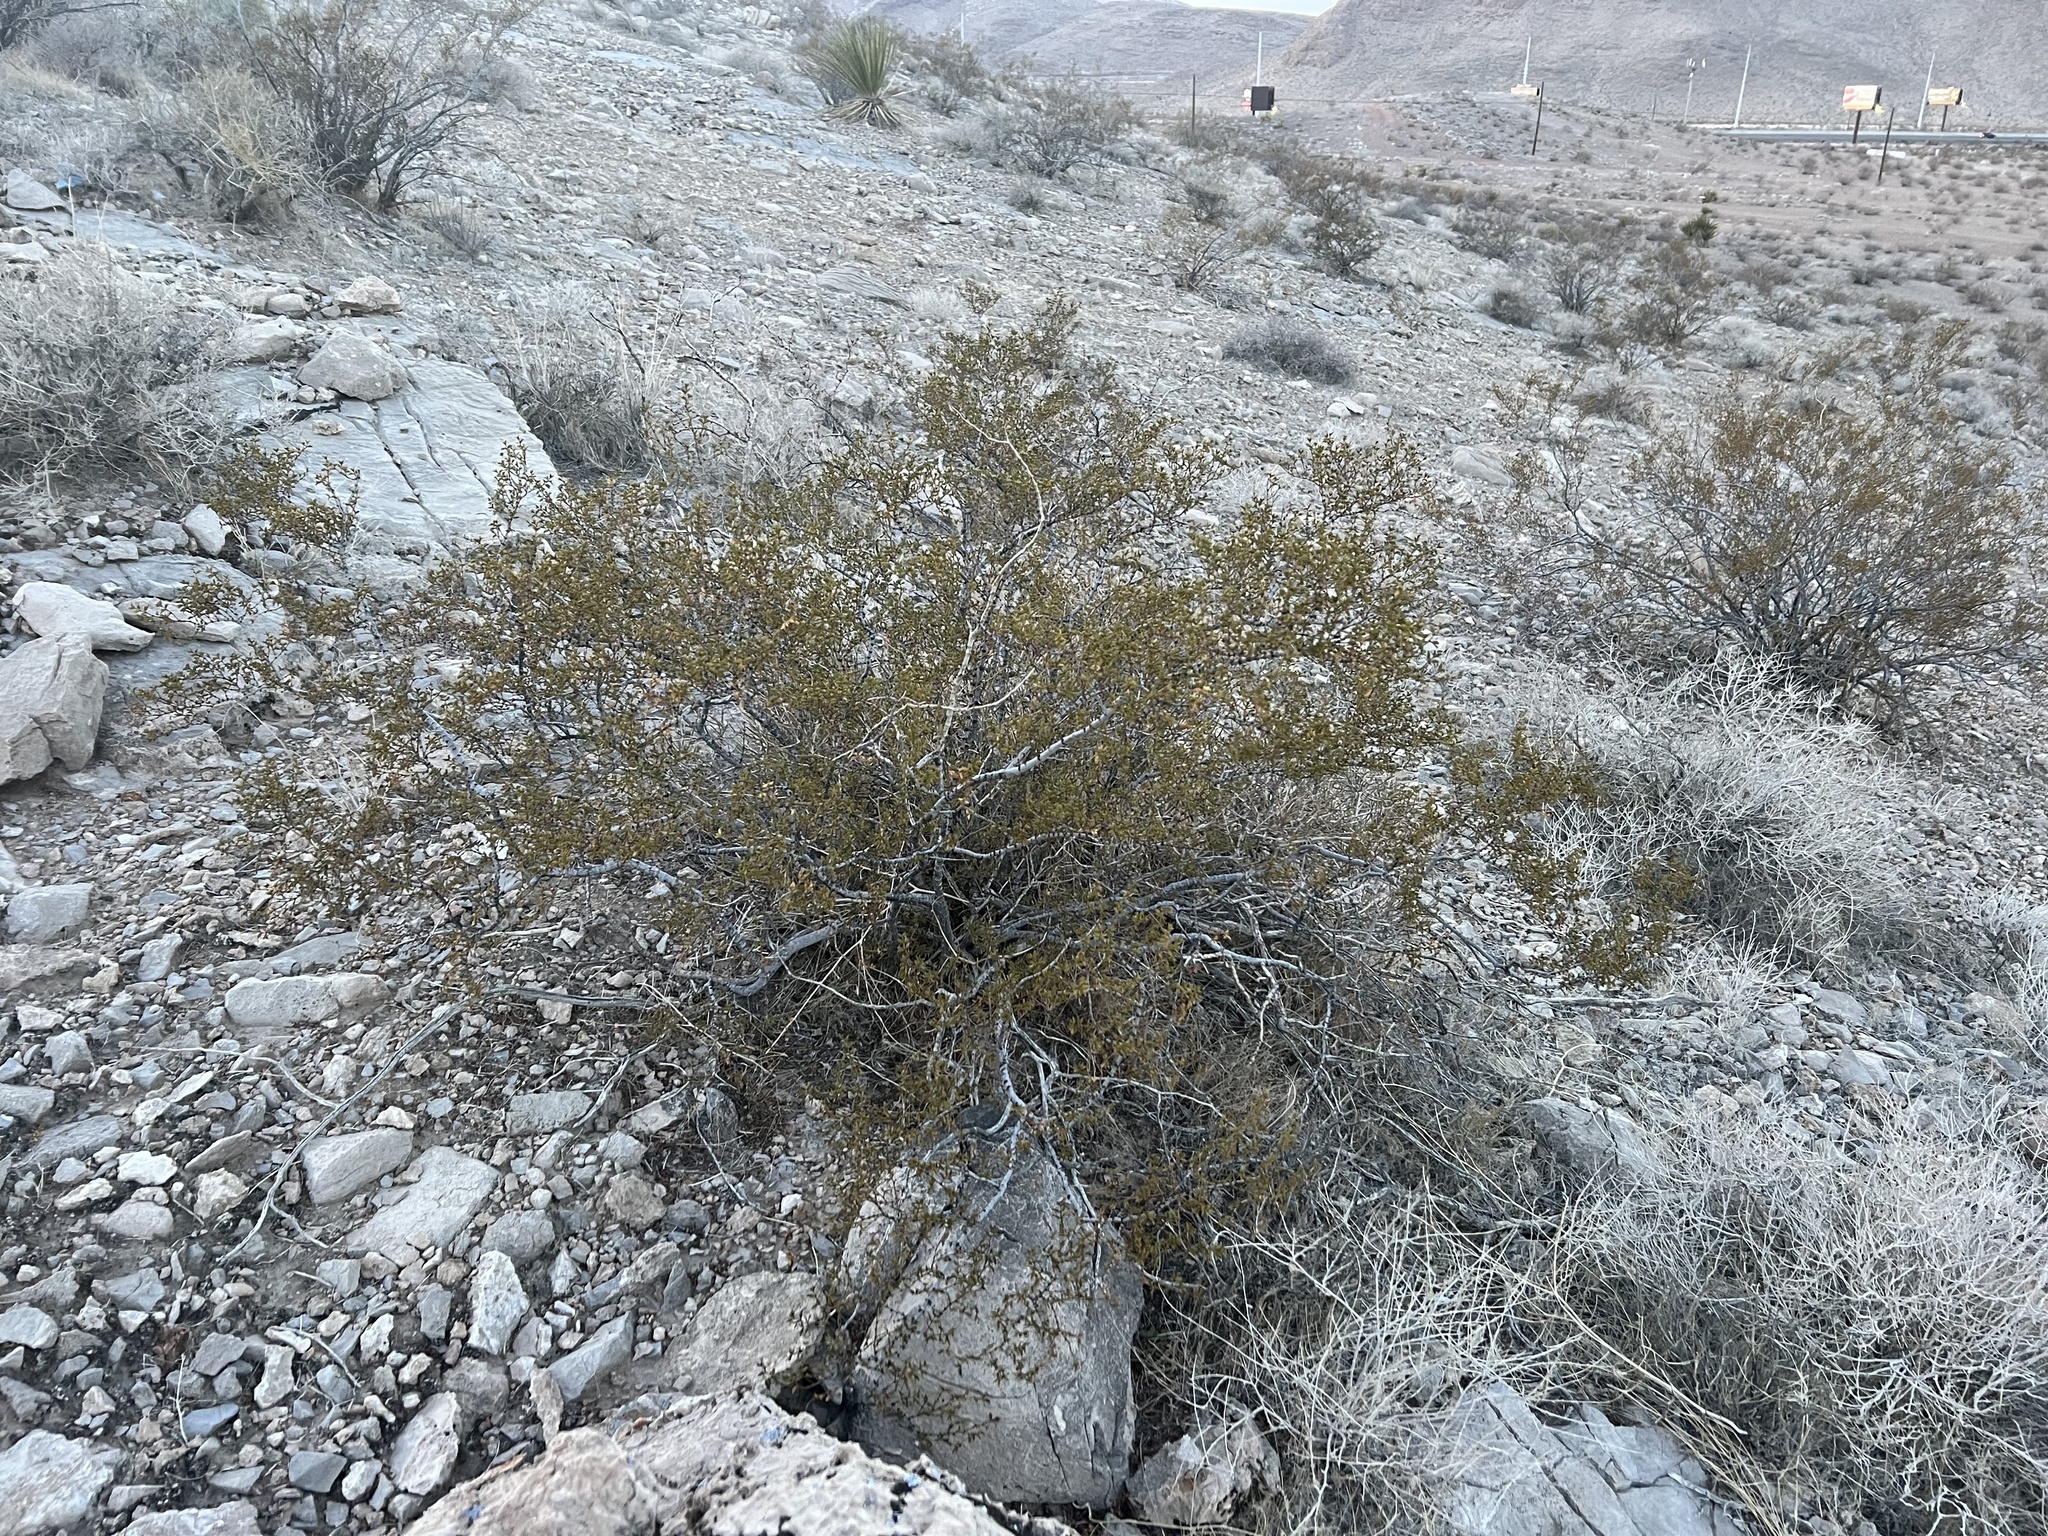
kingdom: Plantae
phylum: Tracheophyta
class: Magnoliopsida
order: Zygophyllales
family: Zygophyllaceae
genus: Larrea
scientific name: Larrea tridentata
